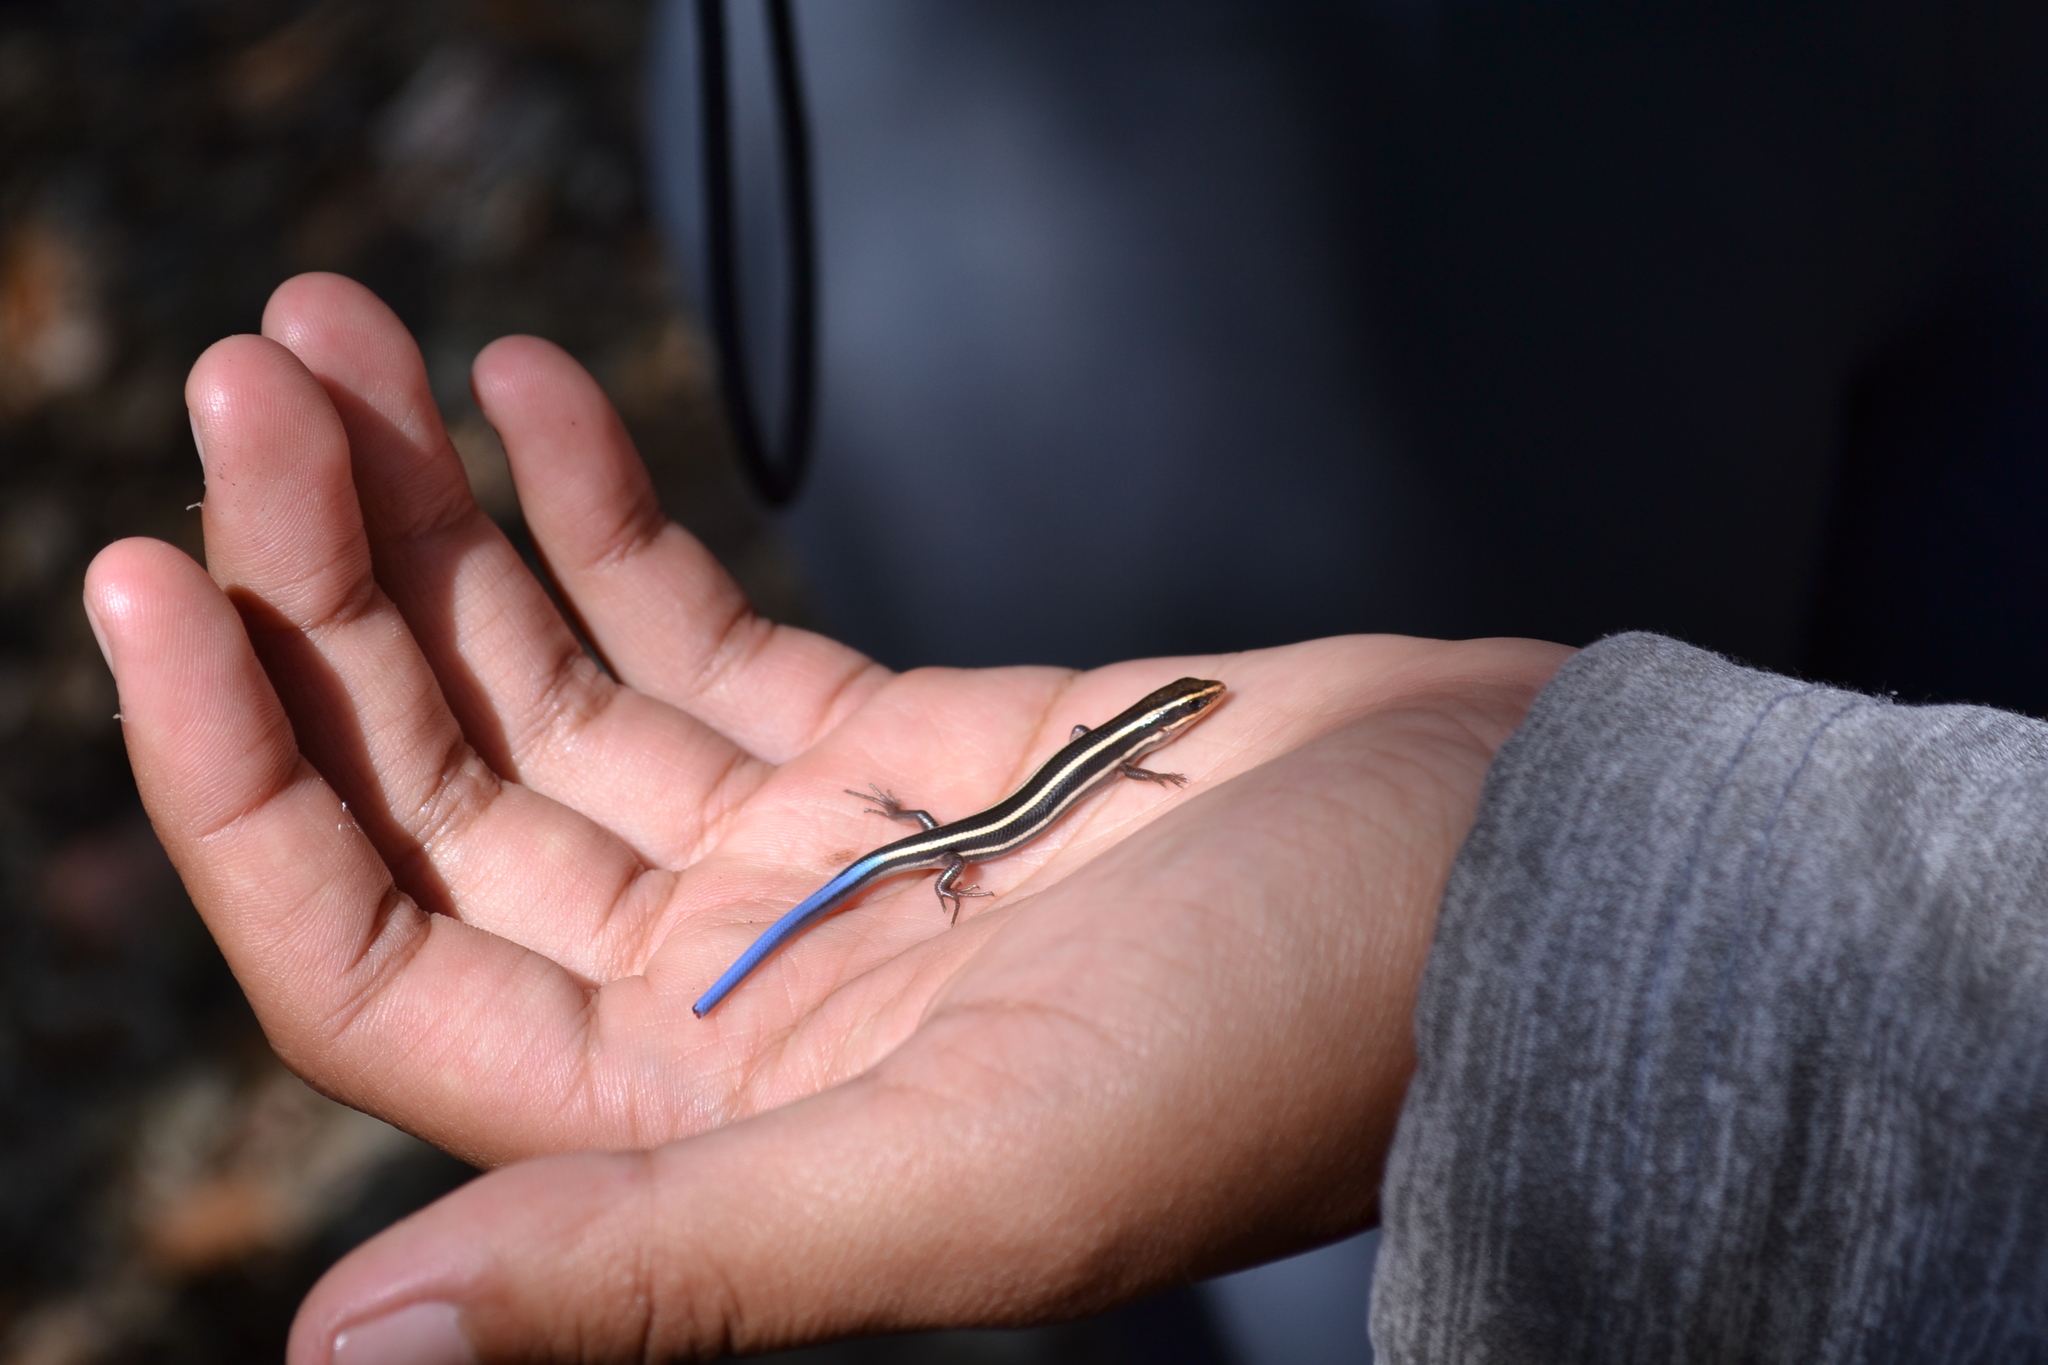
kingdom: Animalia
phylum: Chordata
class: Squamata
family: Scincidae
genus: Plestiodon
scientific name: Plestiodon skiltonianus
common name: Coronado island skink [interparietalis]
